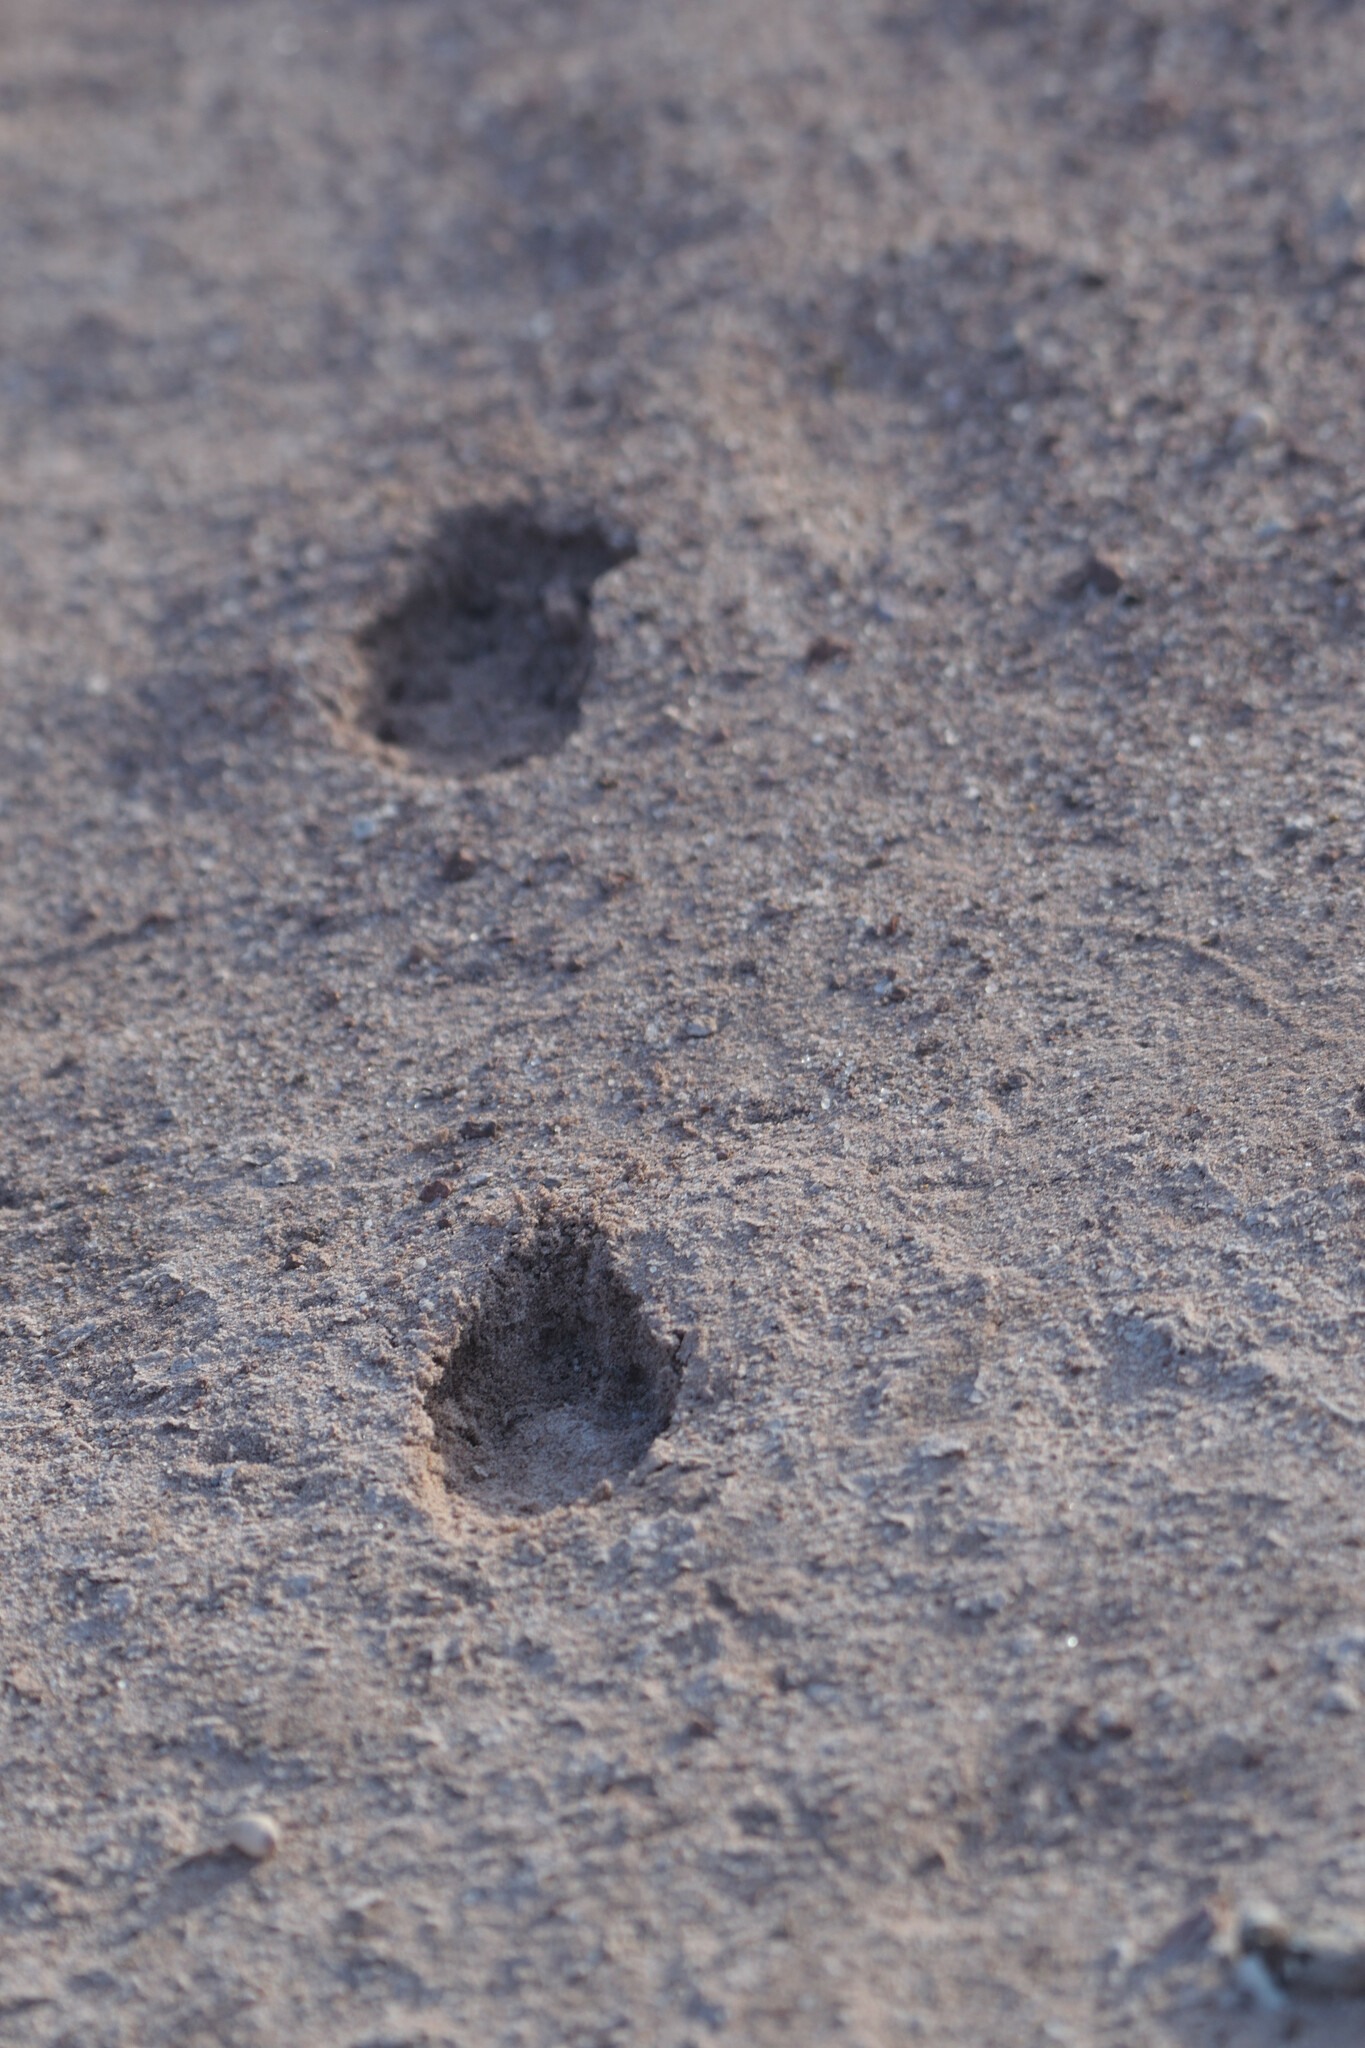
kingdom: Animalia
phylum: Chordata
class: Mammalia
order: Lagomorpha
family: Leporidae
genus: Lepus
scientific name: Lepus insularis
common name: Black jackrabbit
